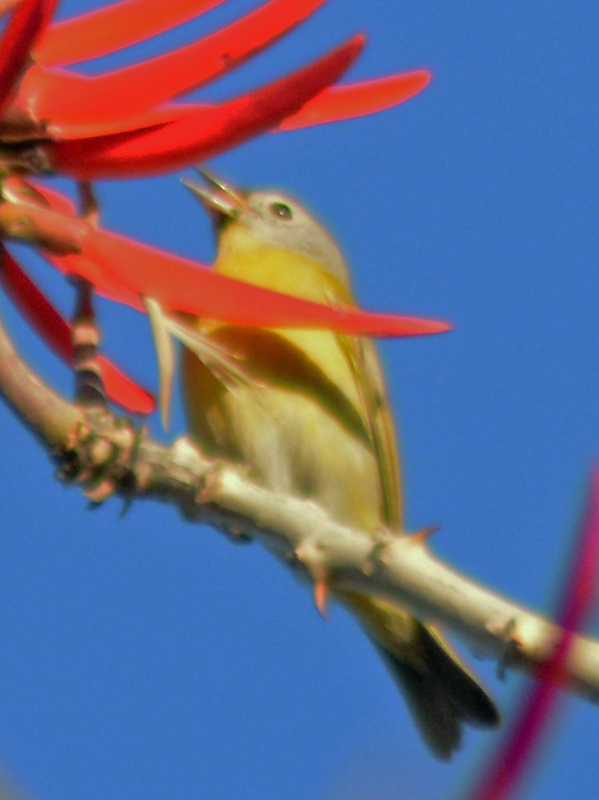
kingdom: Animalia
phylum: Chordata
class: Aves
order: Passeriformes
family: Parulidae
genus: Leiothlypis
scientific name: Leiothlypis ruficapilla
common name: Nashville warbler
